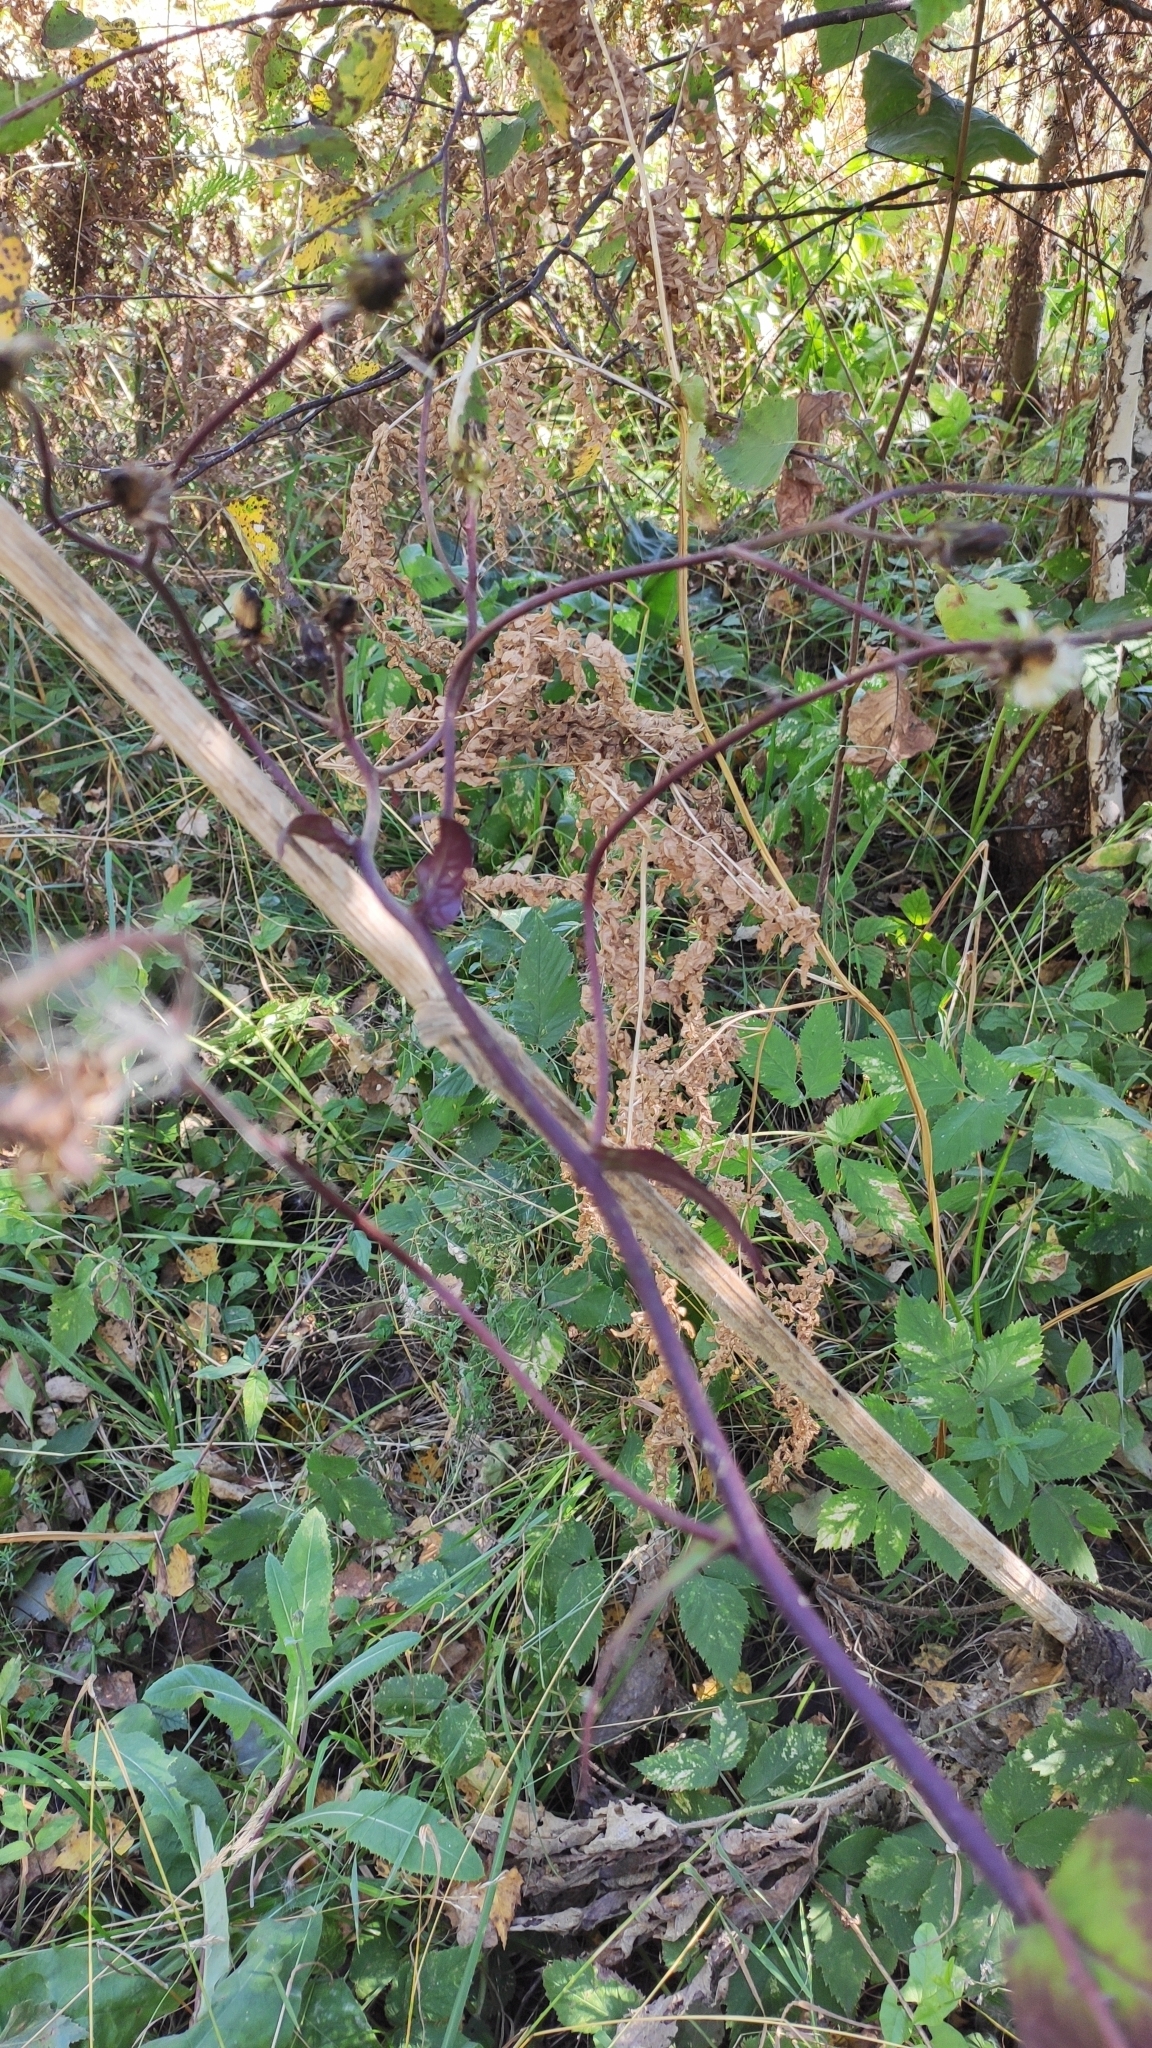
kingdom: Plantae
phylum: Tracheophyta
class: Magnoliopsida
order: Asterales
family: Asteraceae
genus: Crepis
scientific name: Crepis sibirica
